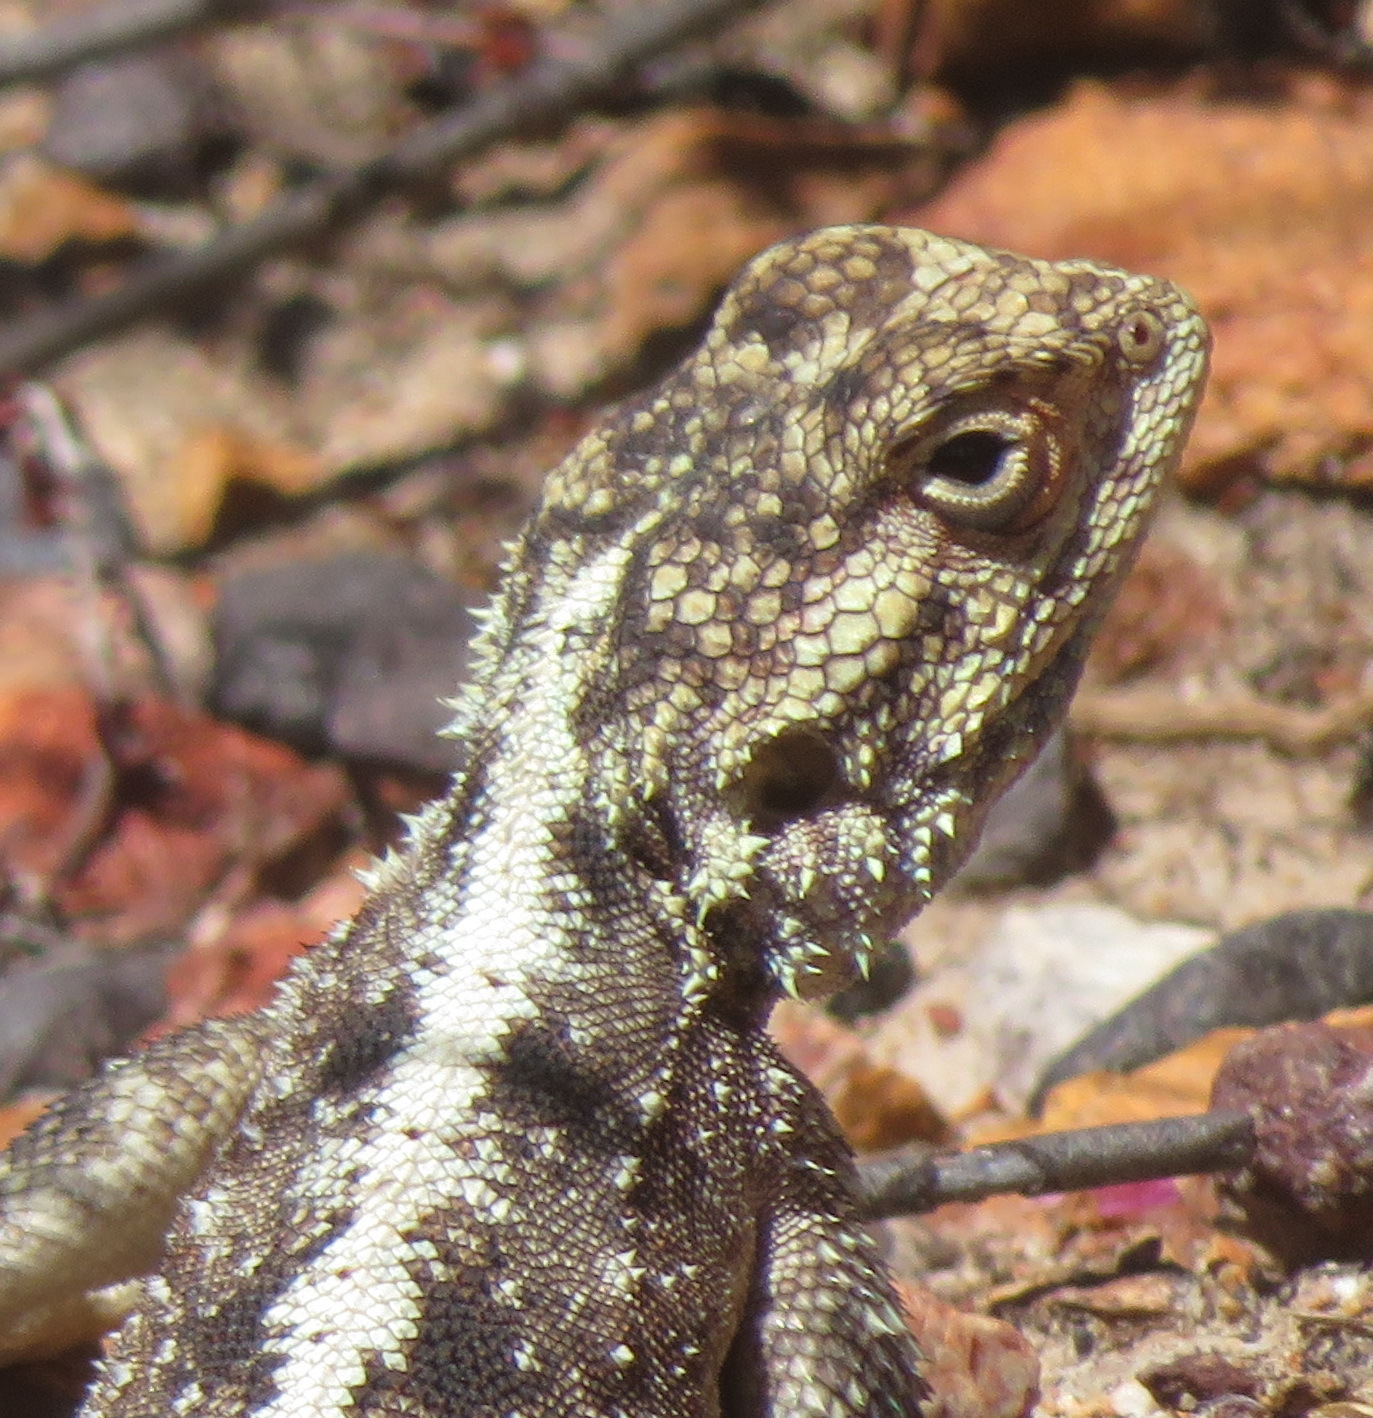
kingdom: Animalia
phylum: Chordata
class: Squamata
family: Agamidae
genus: Agama
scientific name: Agama atra
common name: Southern african rock agama
